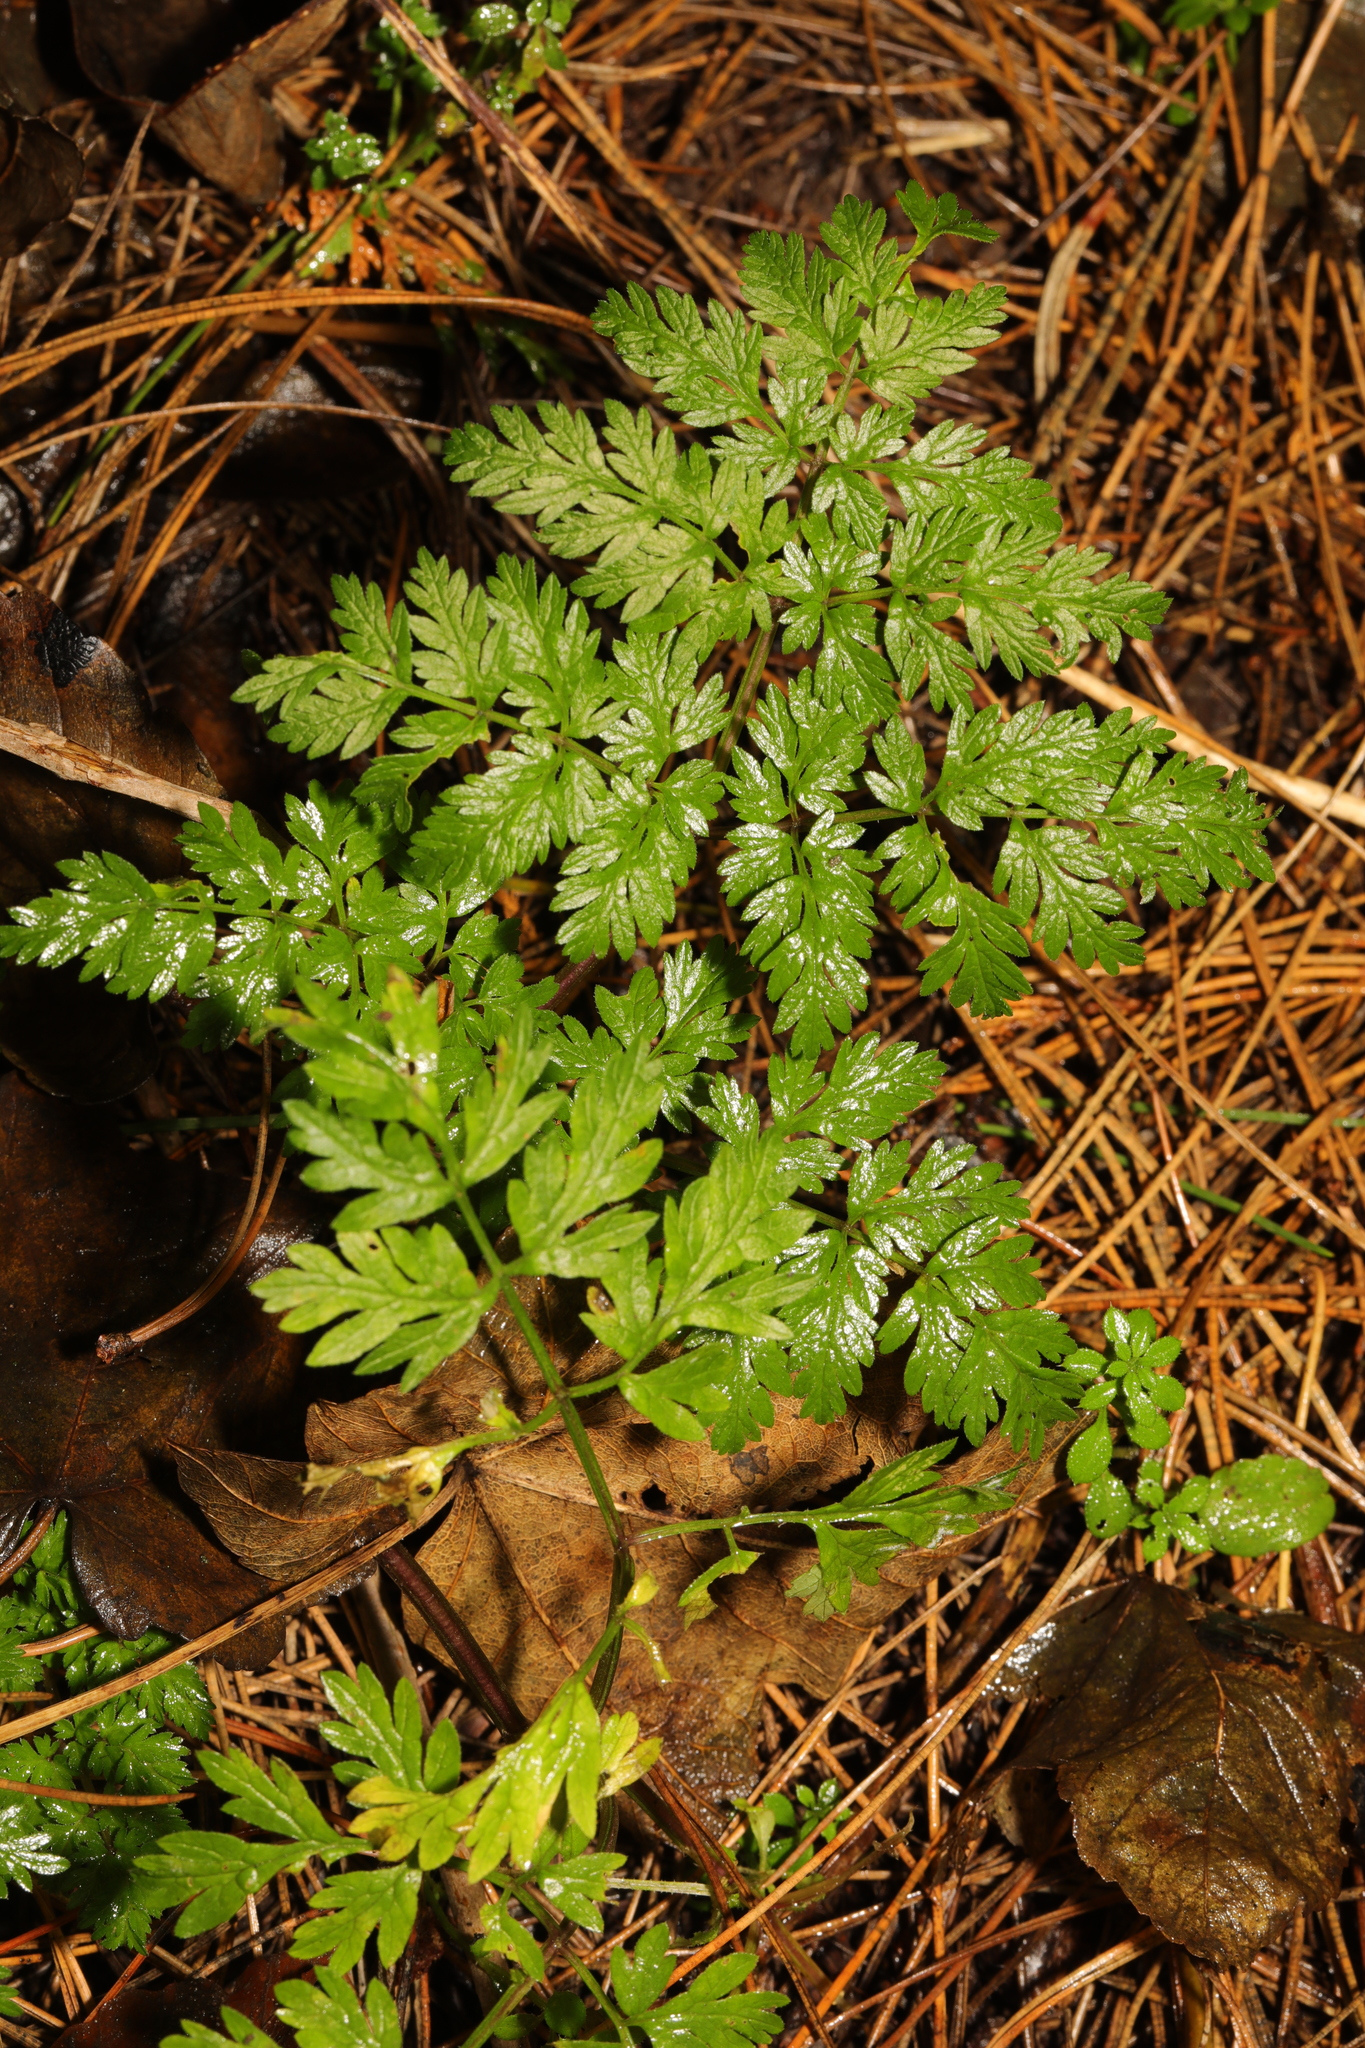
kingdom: Plantae
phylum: Tracheophyta
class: Magnoliopsida
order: Apiales
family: Apiaceae
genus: Anthriscus
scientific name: Anthriscus sylvestris
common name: Cow parsley
